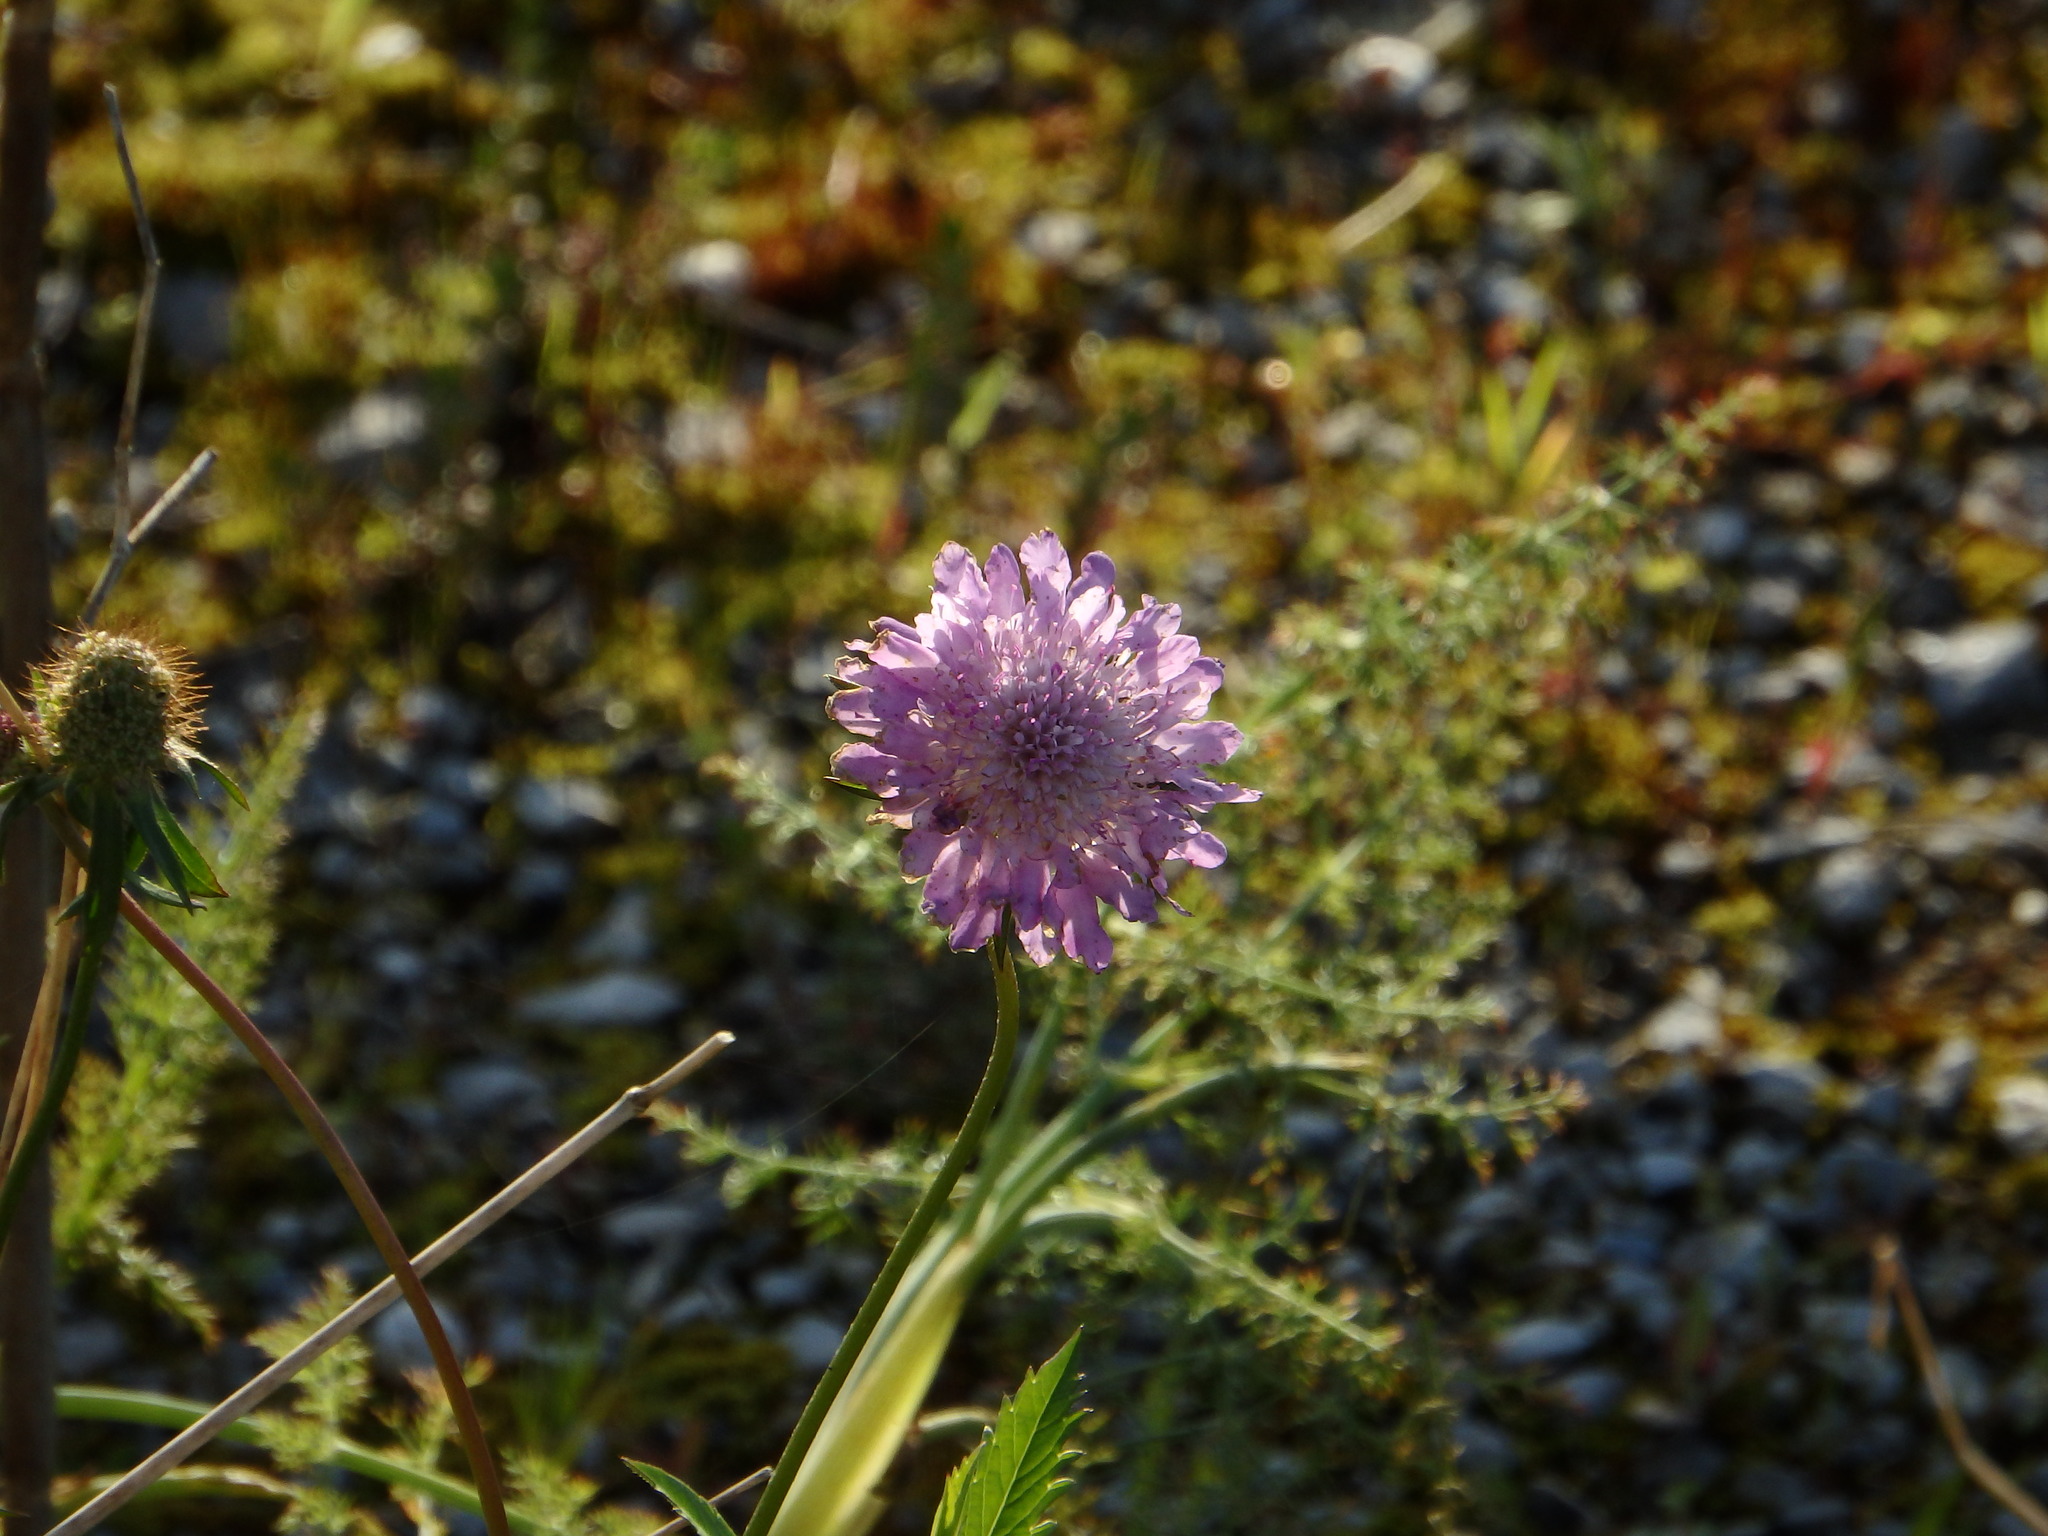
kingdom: Plantae
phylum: Tracheophyta
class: Magnoliopsida
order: Dipsacales
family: Caprifoliaceae
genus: Sixalix
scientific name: Sixalix atropurpurea
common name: Sweet scabious
